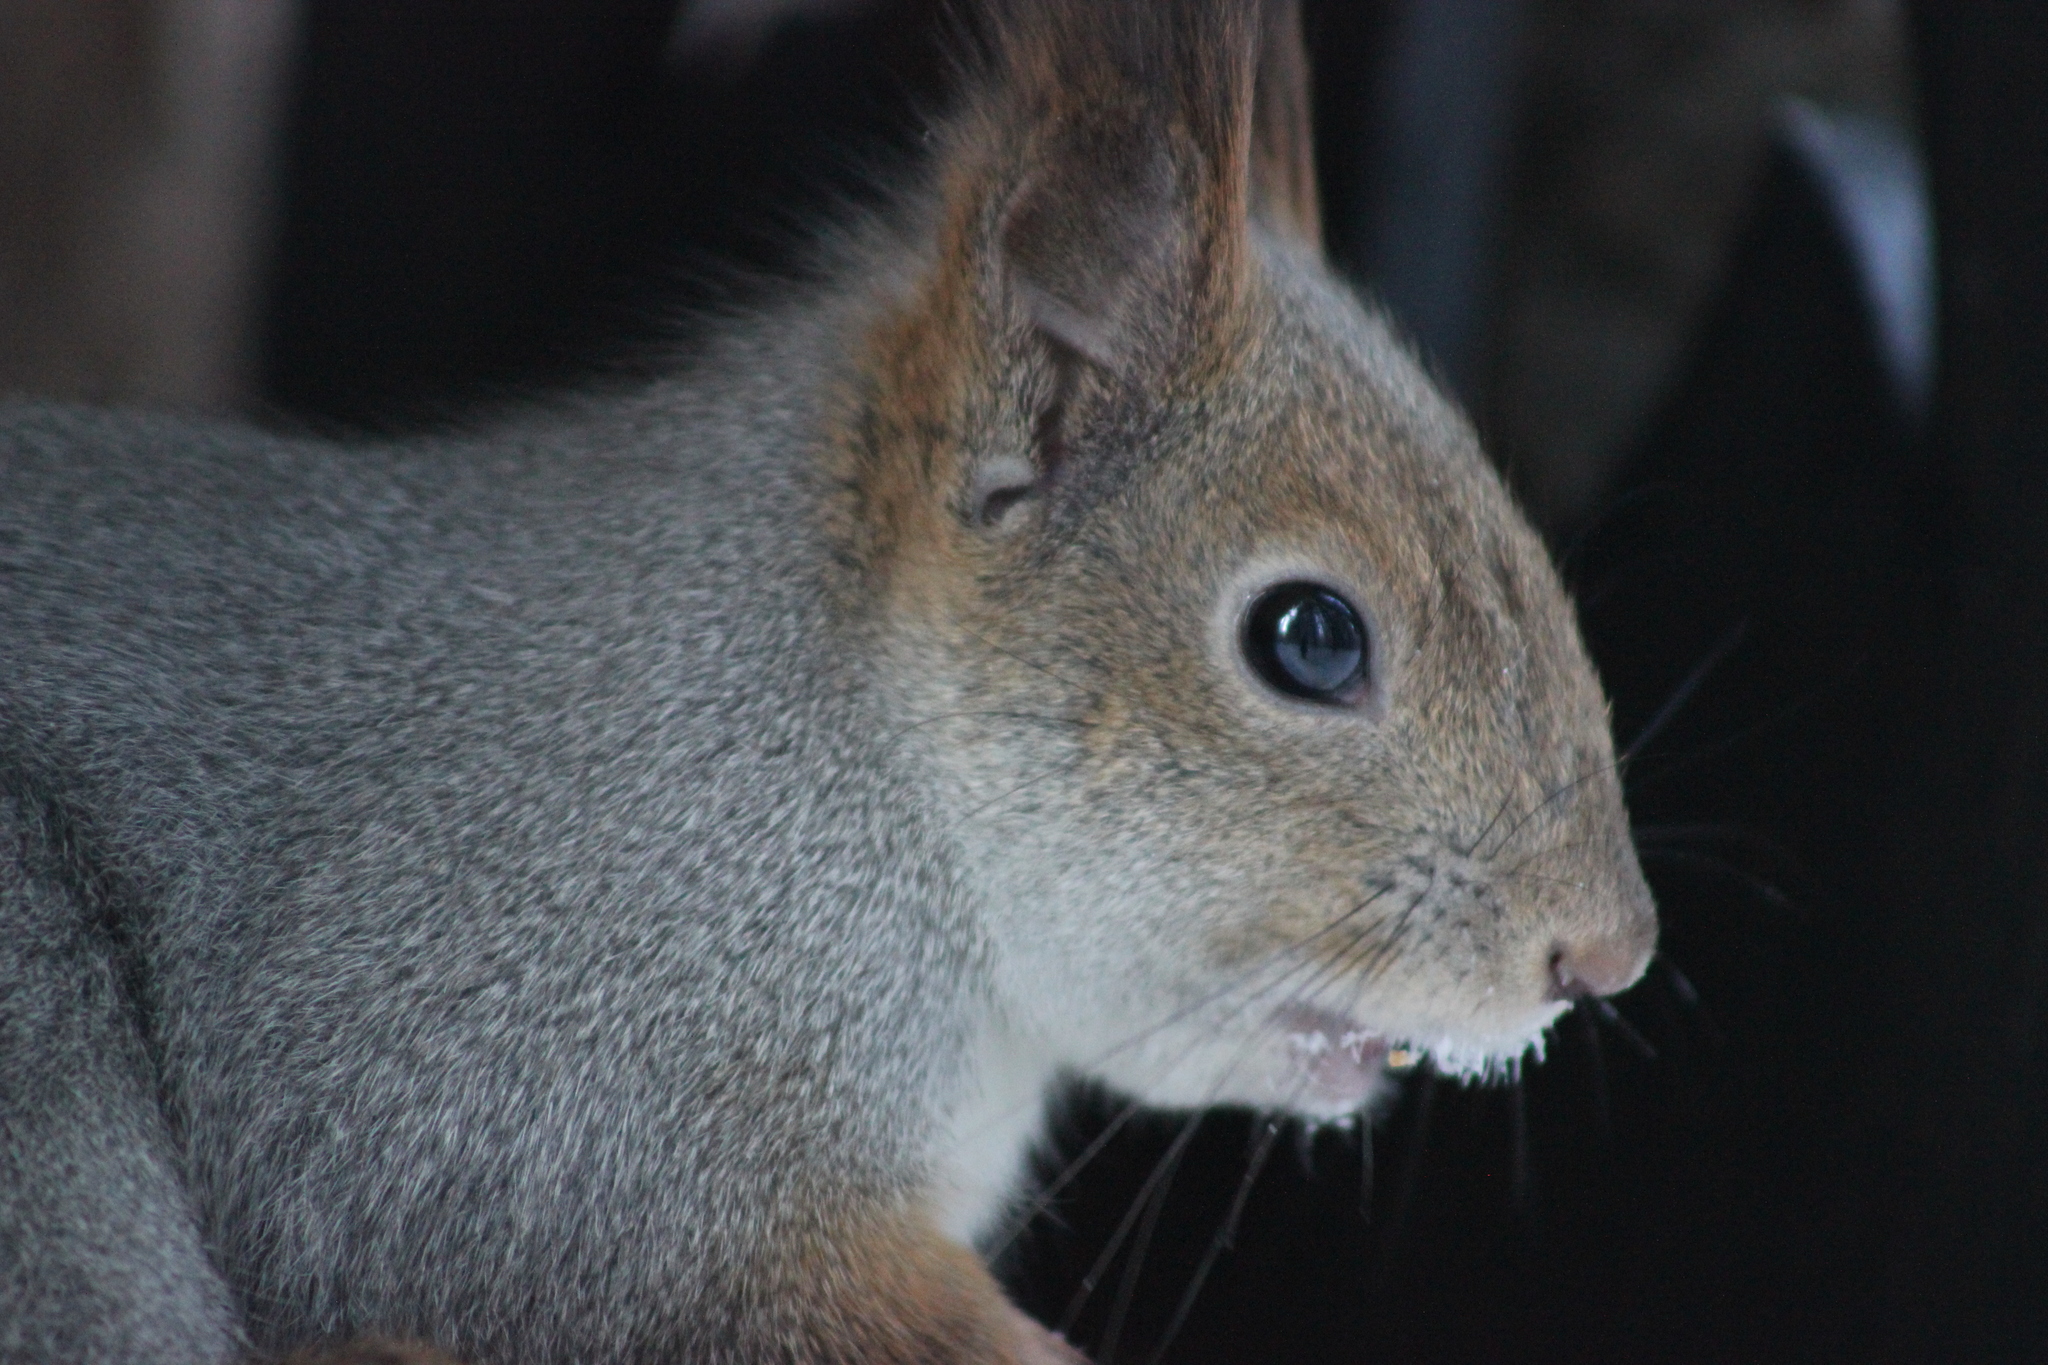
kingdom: Animalia
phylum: Chordata
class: Mammalia
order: Rodentia
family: Sciuridae
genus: Sciurus
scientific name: Sciurus vulgaris
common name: Eurasian red squirrel
